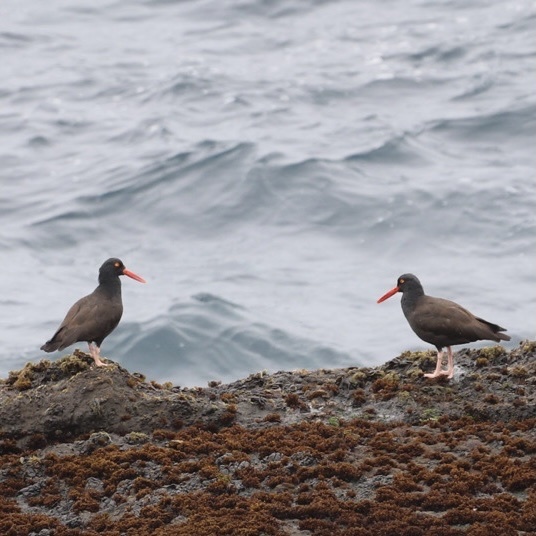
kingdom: Animalia
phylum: Chordata
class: Aves
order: Charadriiformes
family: Haematopodidae
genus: Haematopus
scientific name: Haematopus bachmani
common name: Black oystercatcher
